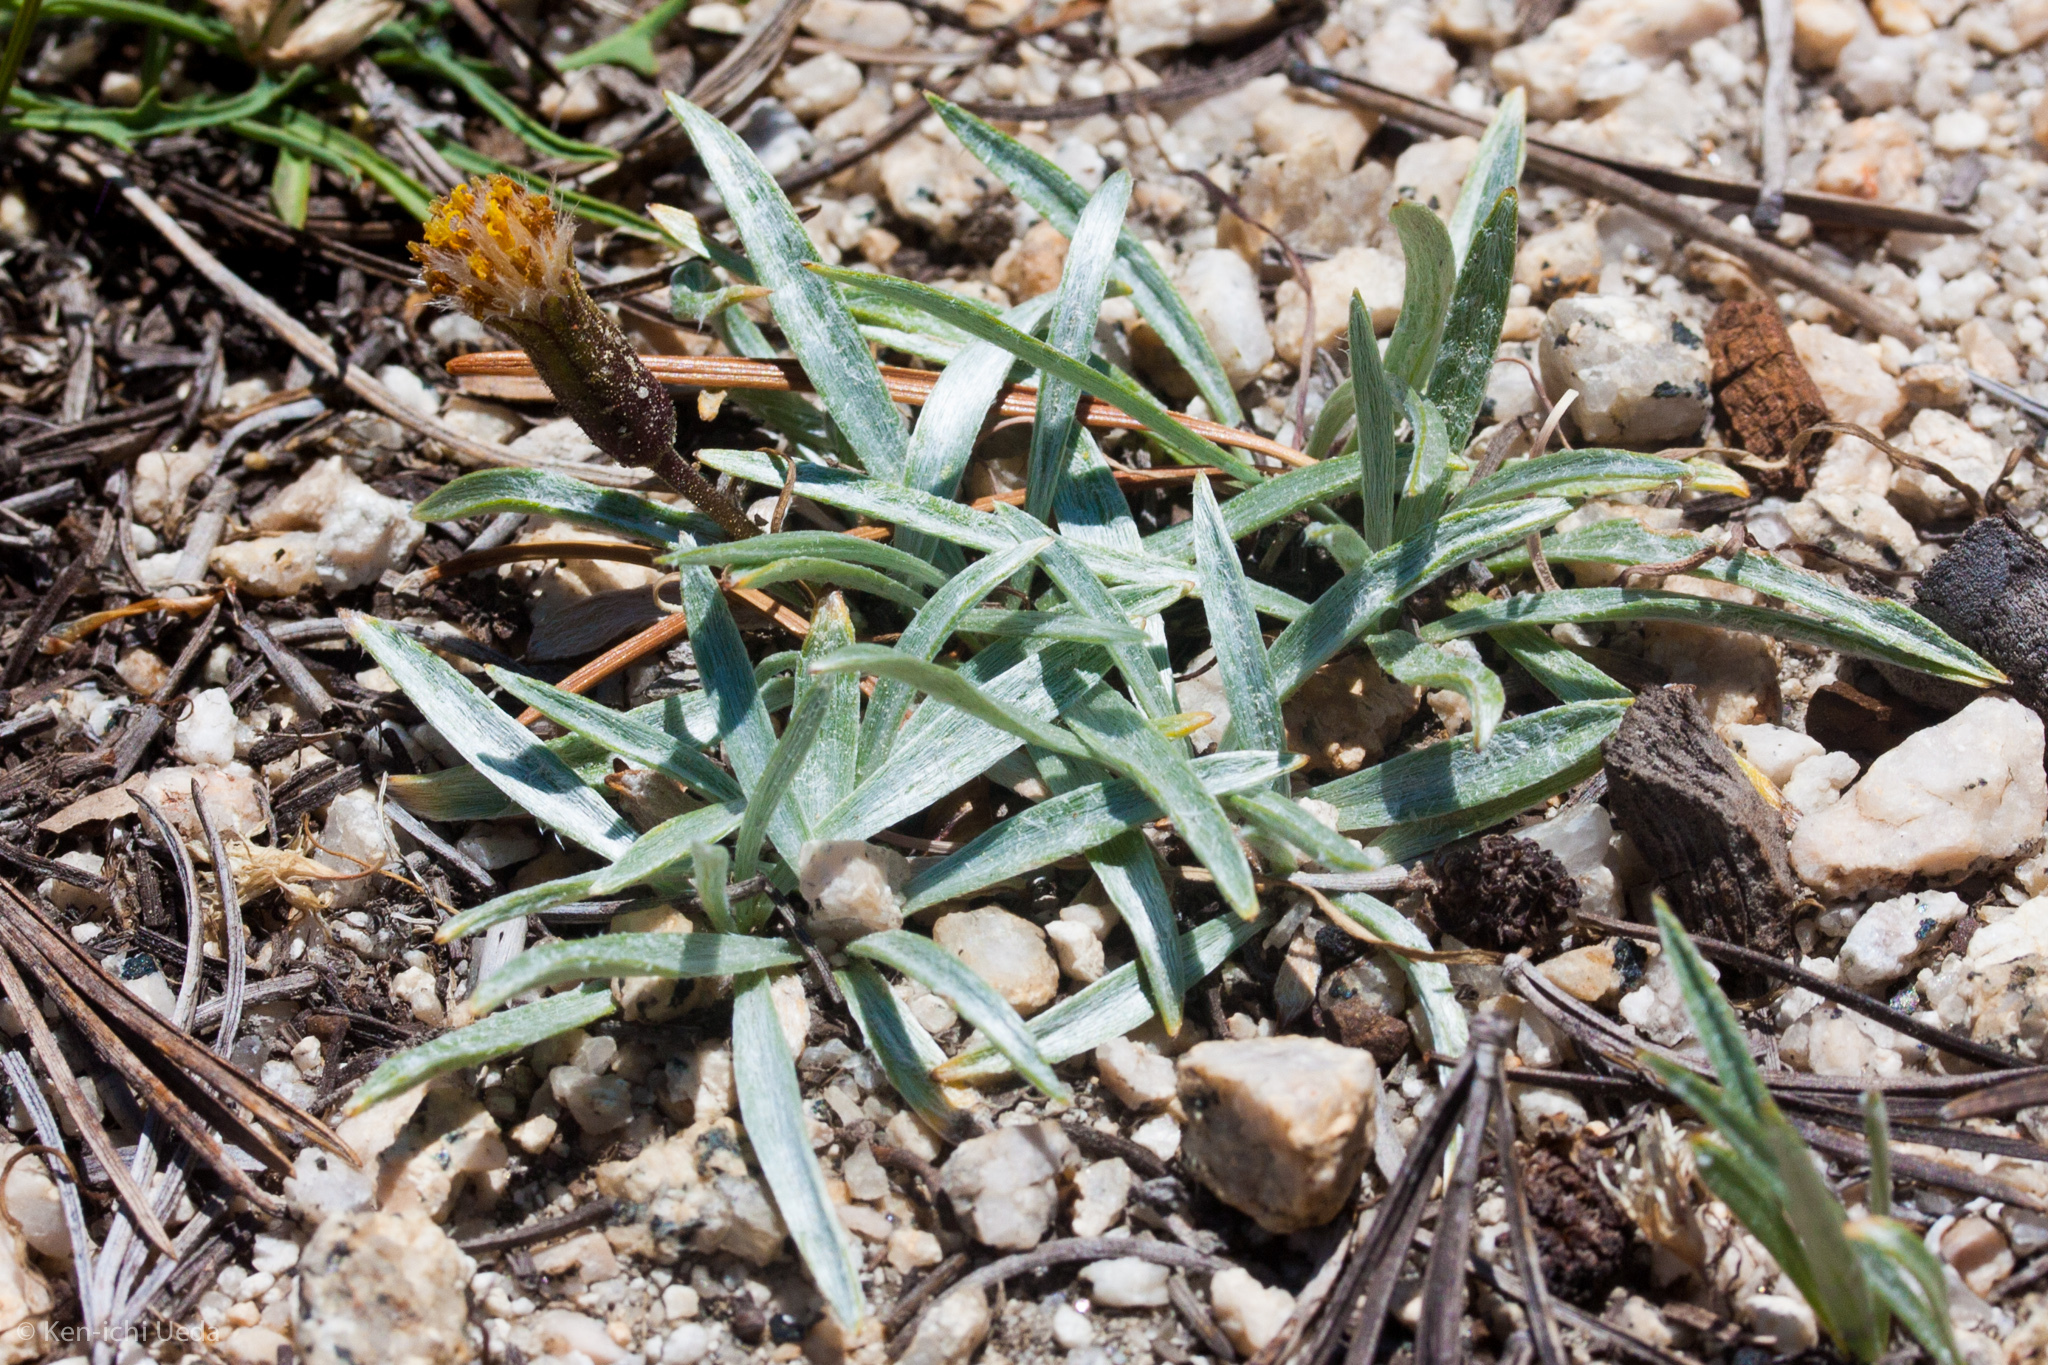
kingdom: Plantae
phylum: Tracheophyta
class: Magnoliopsida
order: Asterales
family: Asteraceae
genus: Raillardella
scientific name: Raillardella argentea
